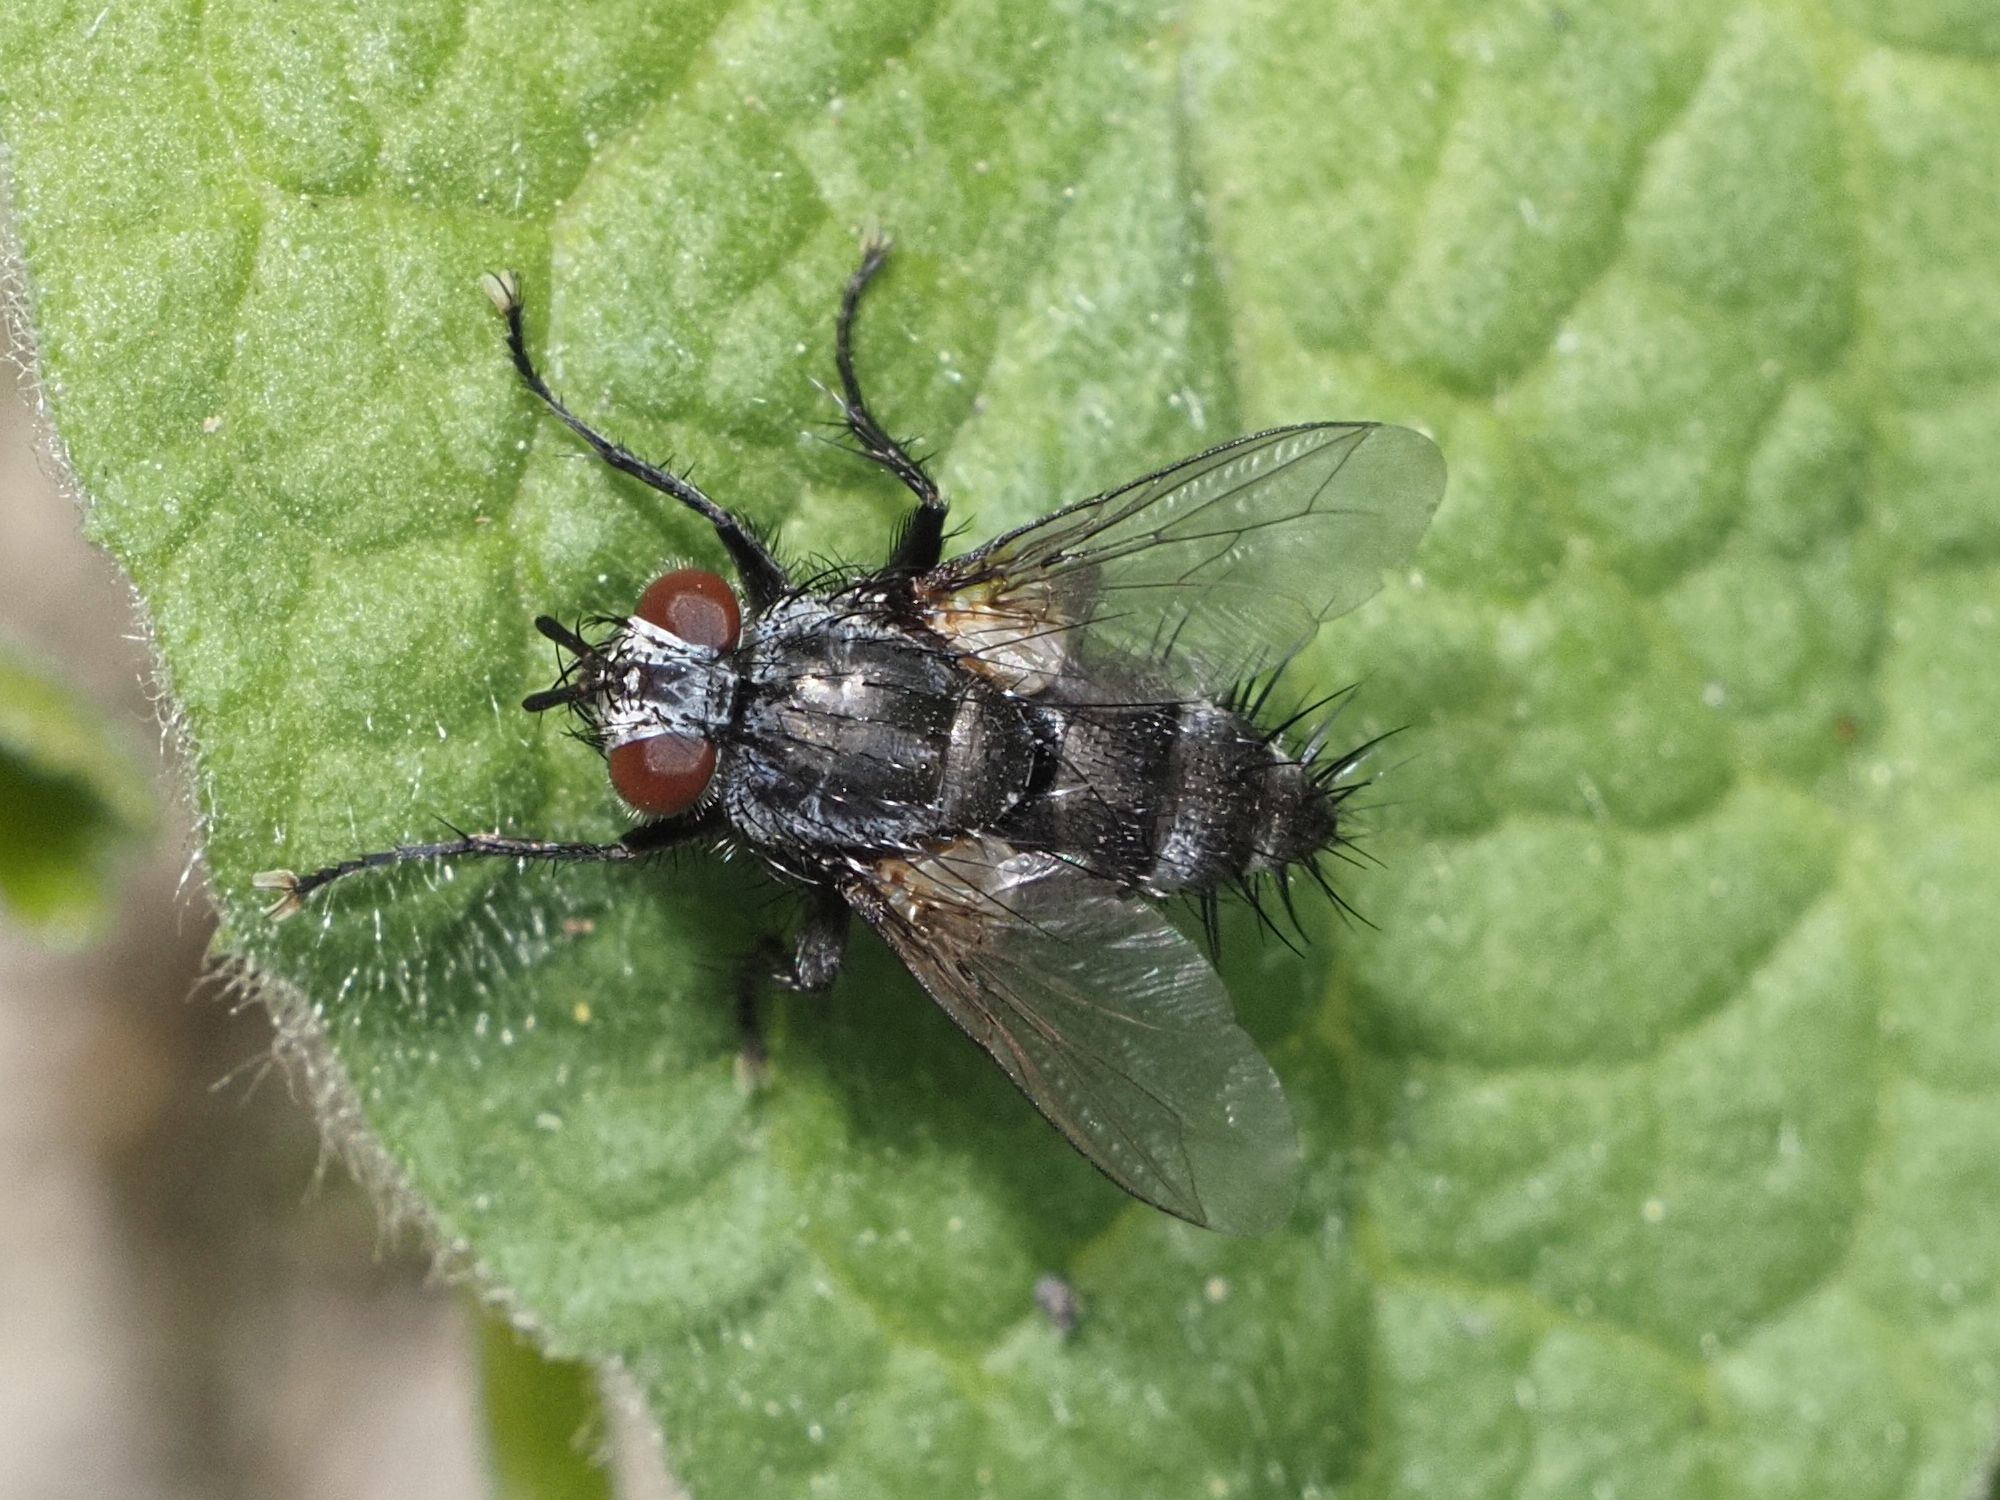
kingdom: Animalia
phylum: Arthropoda
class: Insecta
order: Diptera
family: Tachinidae
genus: Voria
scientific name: Voria ruralis
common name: Parasitic fly
